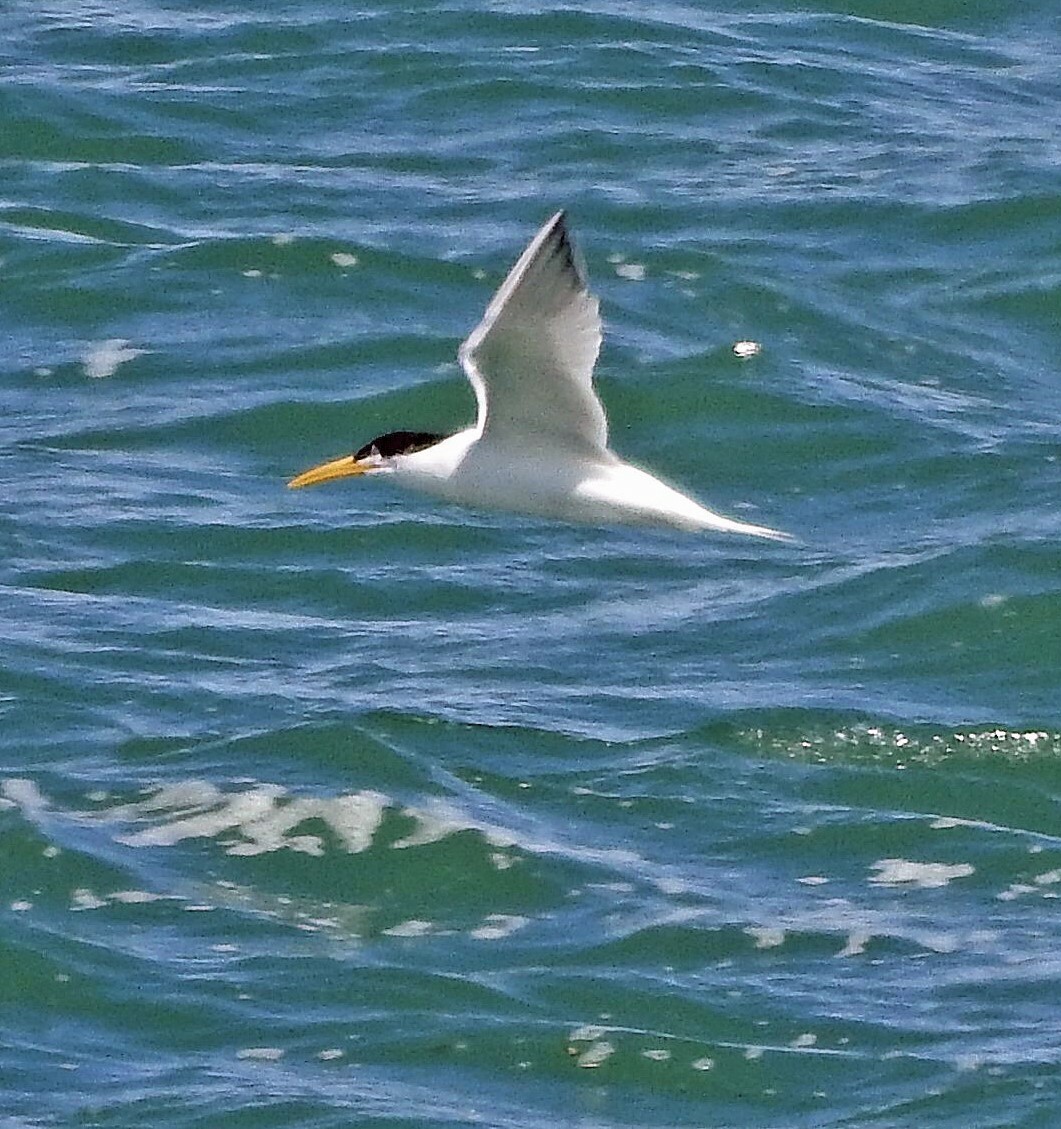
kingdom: Animalia
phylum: Chordata
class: Aves
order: Charadriiformes
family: Laridae
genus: Thalasseus
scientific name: Thalasseus acuflavidus
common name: Cabot's tern
